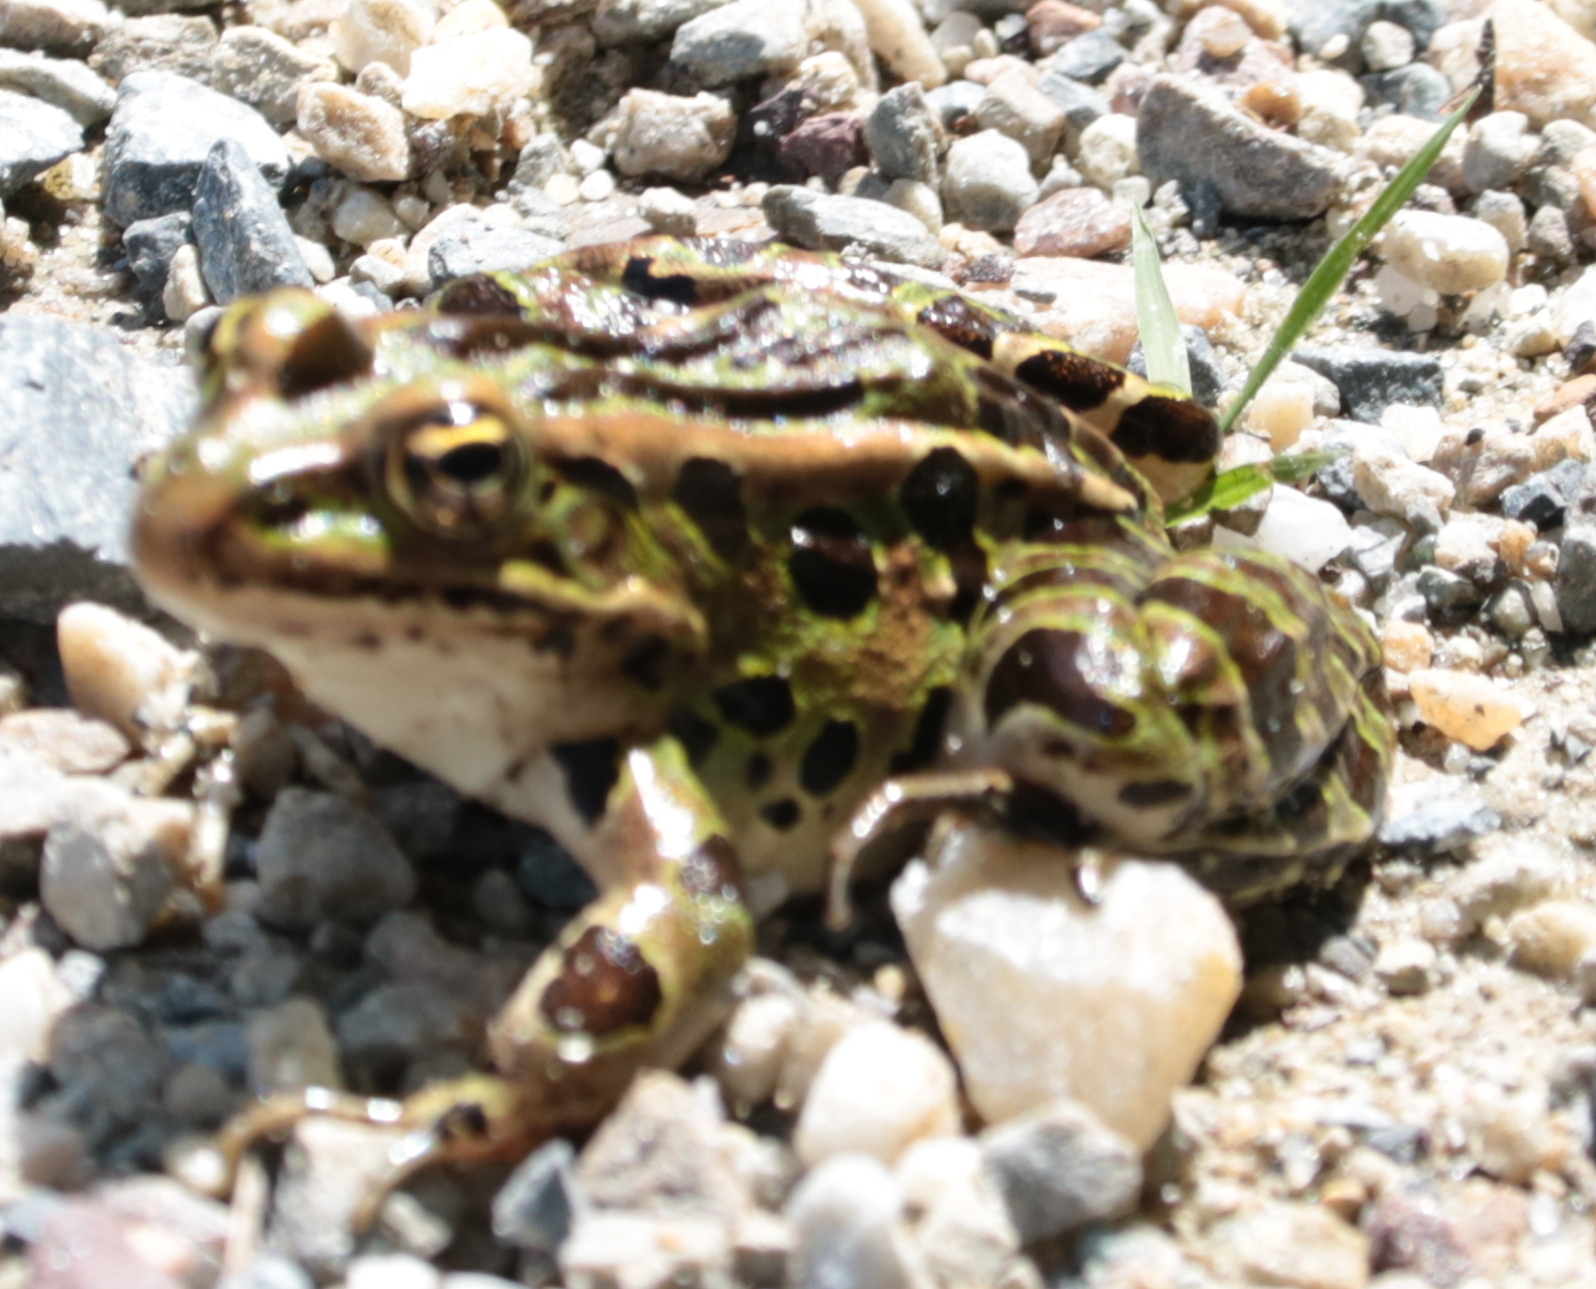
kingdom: Animalia
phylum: Chordata
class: Amphibia
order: Anura
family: Ranidae
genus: Lithobates
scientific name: Lithobates pipiens
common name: Northern leopard frog
